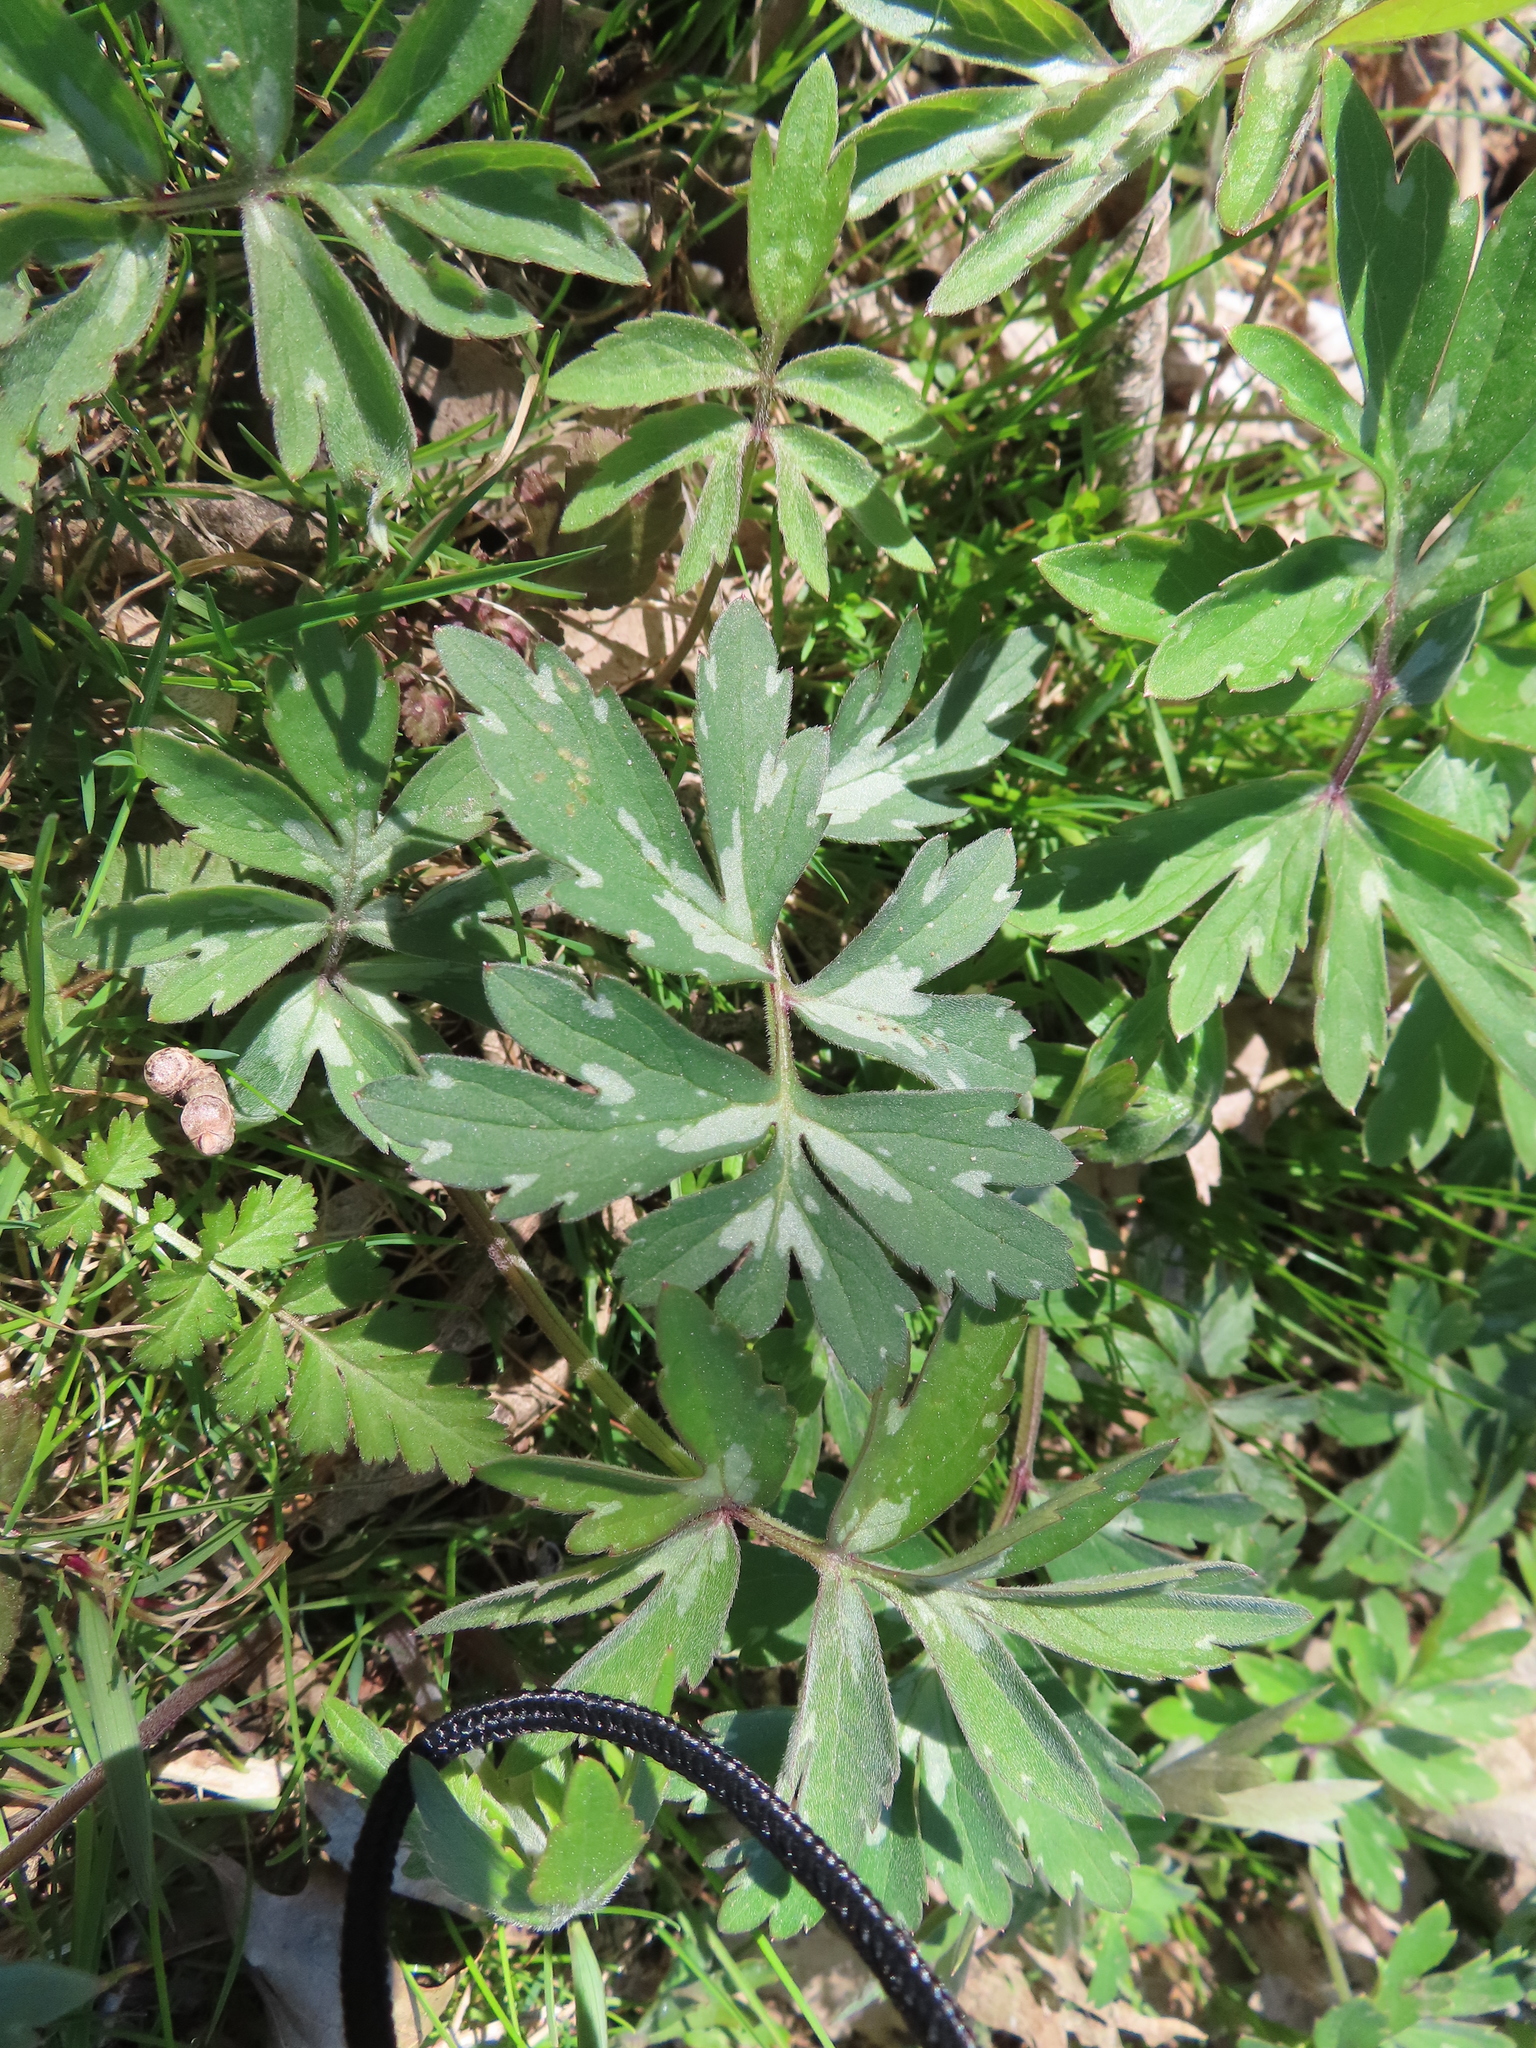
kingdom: Plantae
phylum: Tracheophyta
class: Magnoliopsida
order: Boraginales
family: Hydrophyllaceae
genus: Hydrophyllum
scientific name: Hydrophyllum virginianum
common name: Virginia waterleaf
